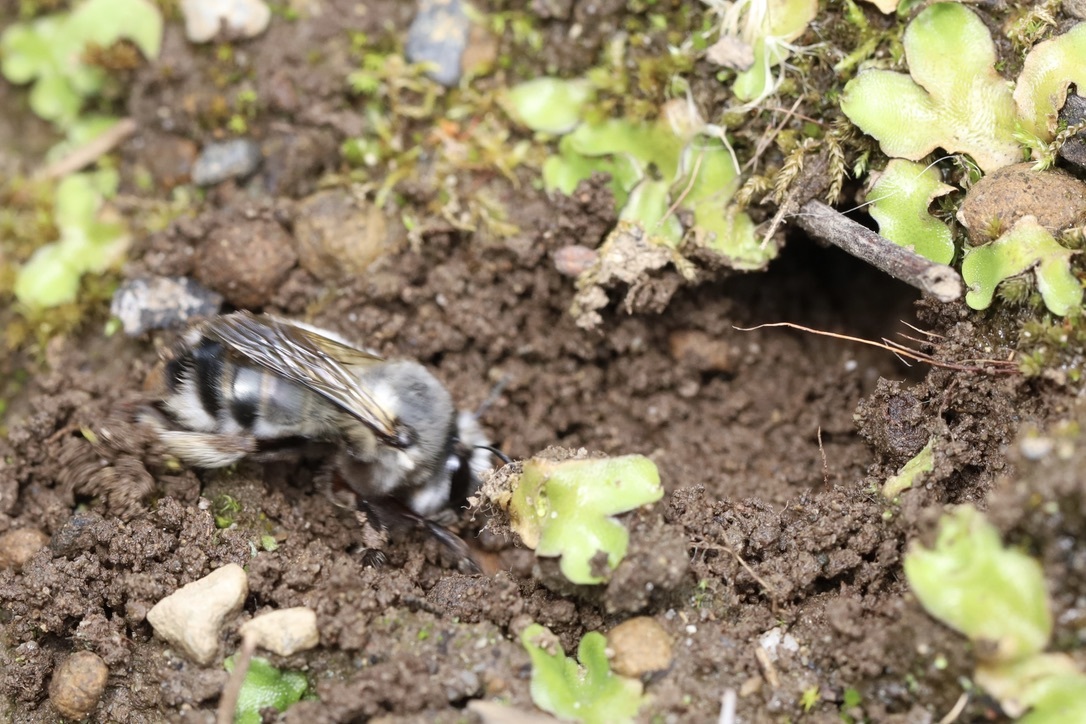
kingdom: Animalia
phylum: Arthropoda
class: Insecta
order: Hymenoptera
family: Apidae
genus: Anthophora
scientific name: Anthophora pacifica
